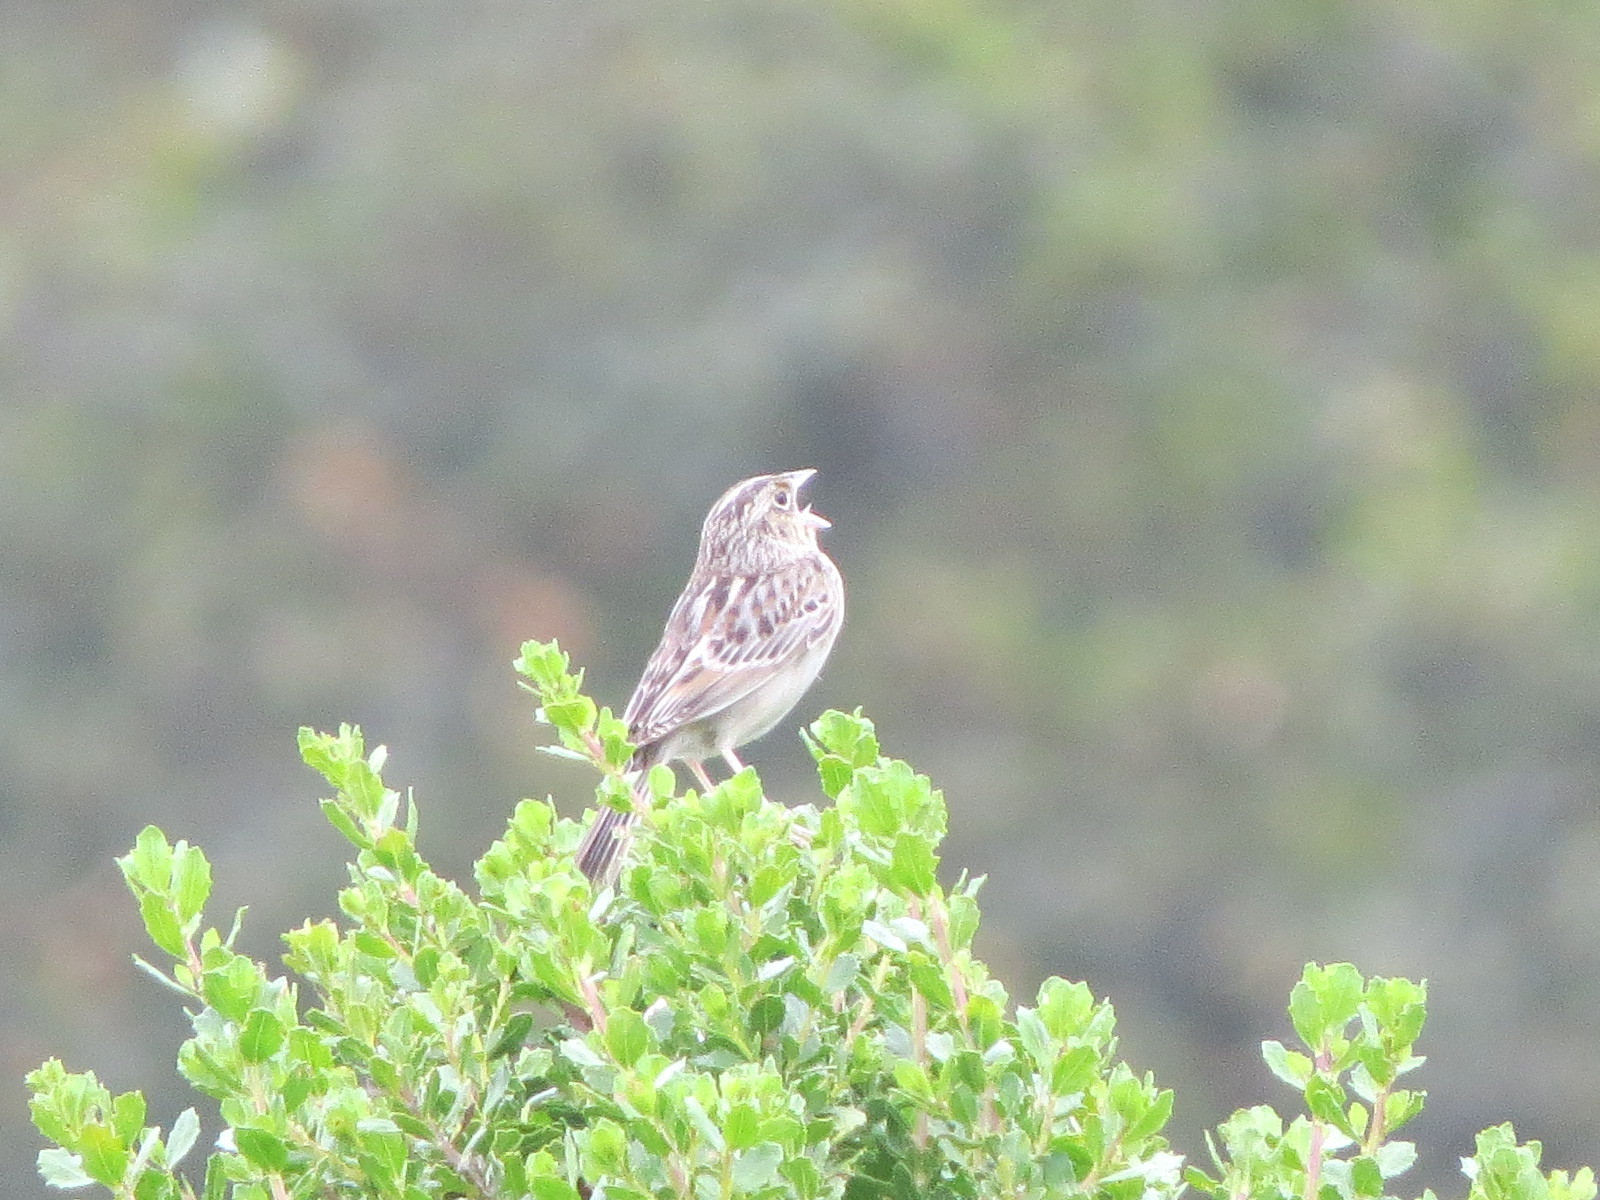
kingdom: Animalia
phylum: Chordata
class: Aves
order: Passeriformes
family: Passerellidae
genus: Ammodramus
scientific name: Ammodramus savannarum
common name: Grasshopper sparrow
